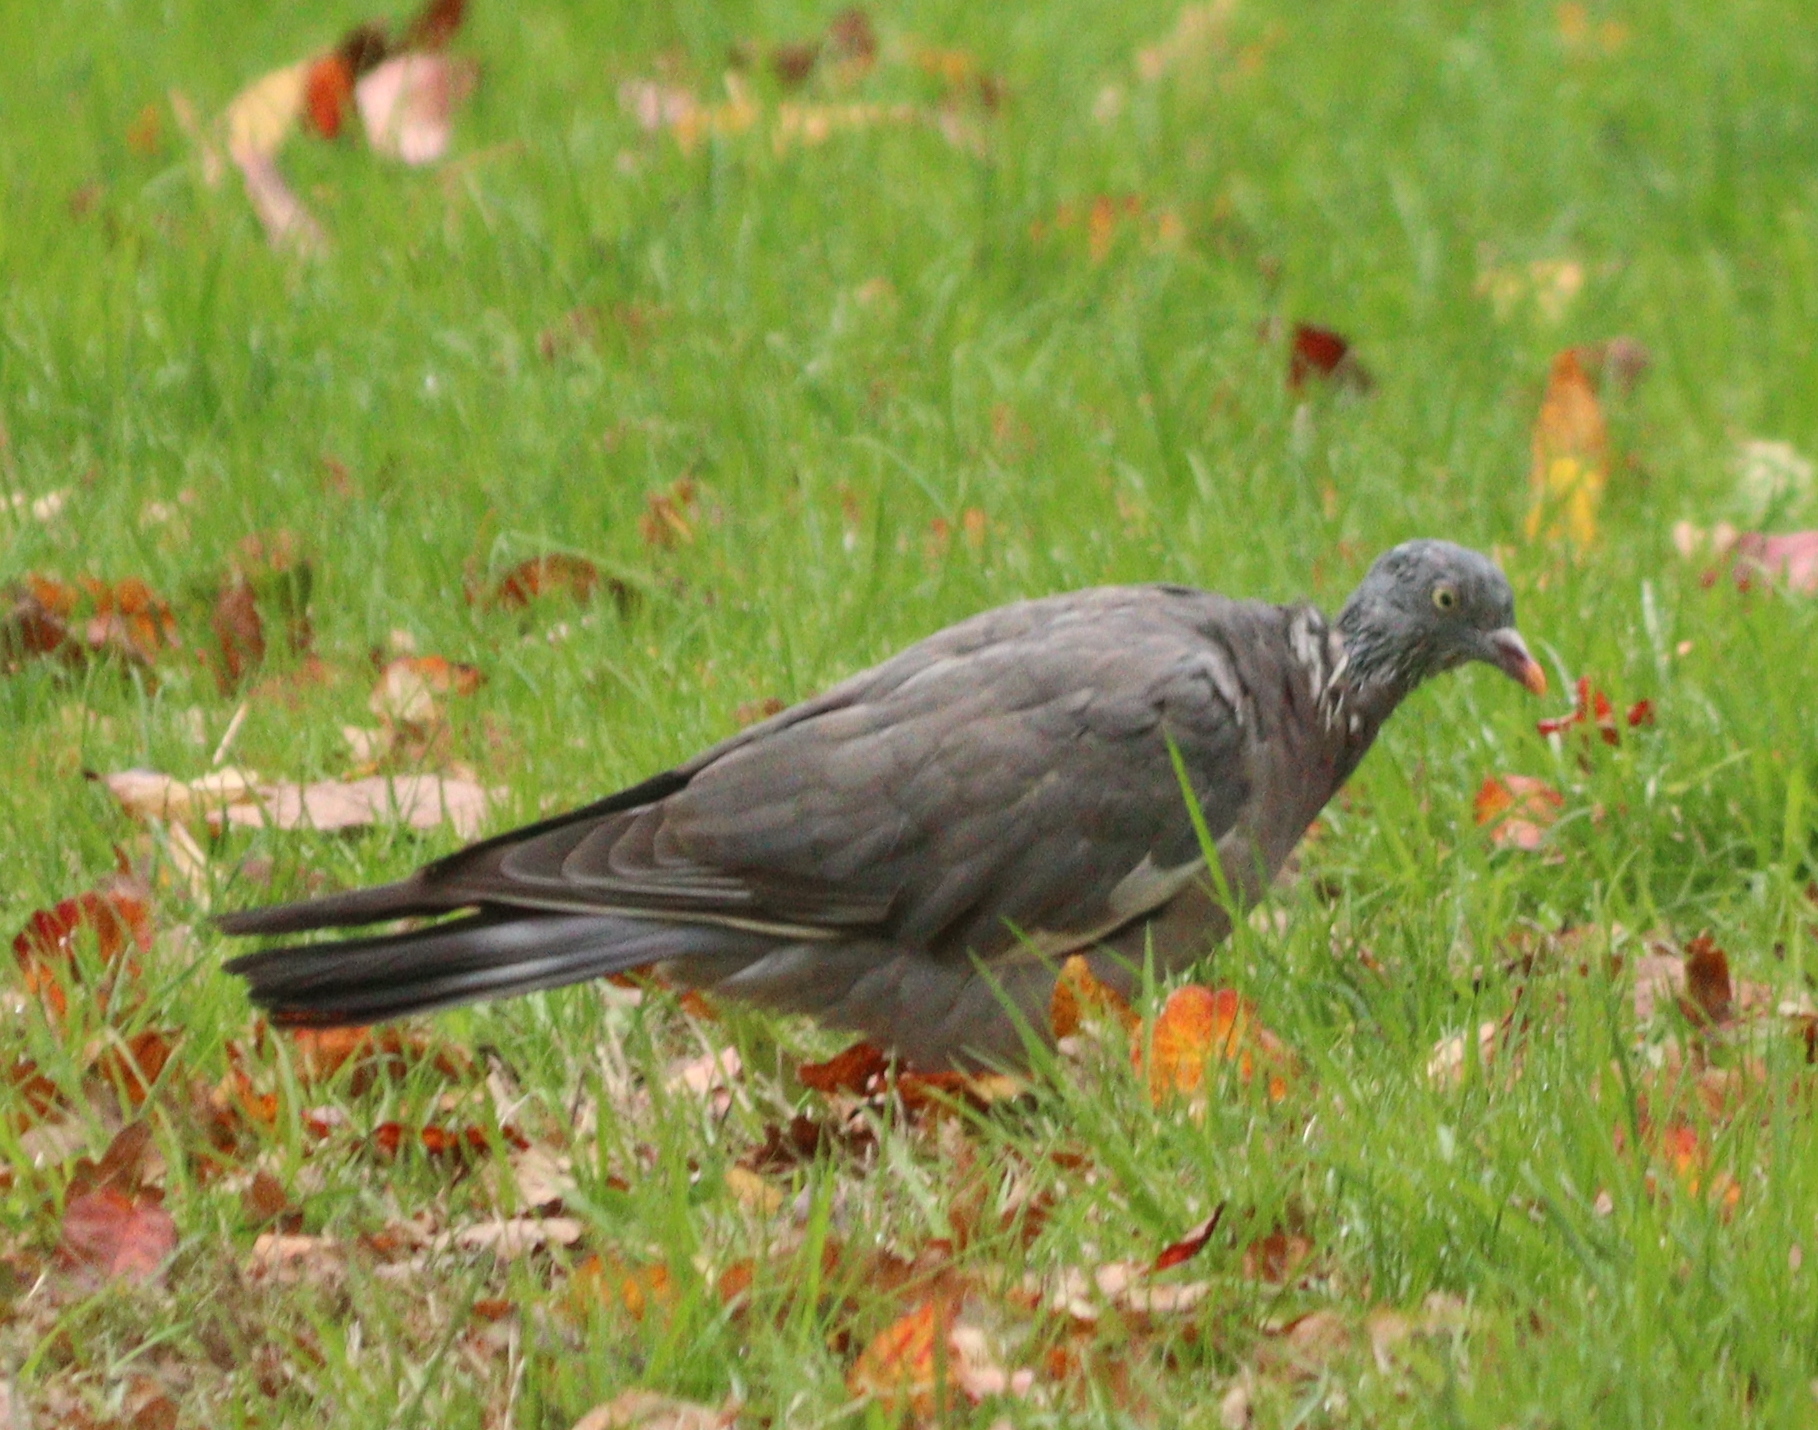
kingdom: Animalia
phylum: Chordata
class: Aves
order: Columbiformes
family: Columbidae
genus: Columba
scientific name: Columba palumbus
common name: Common wood pigeon
